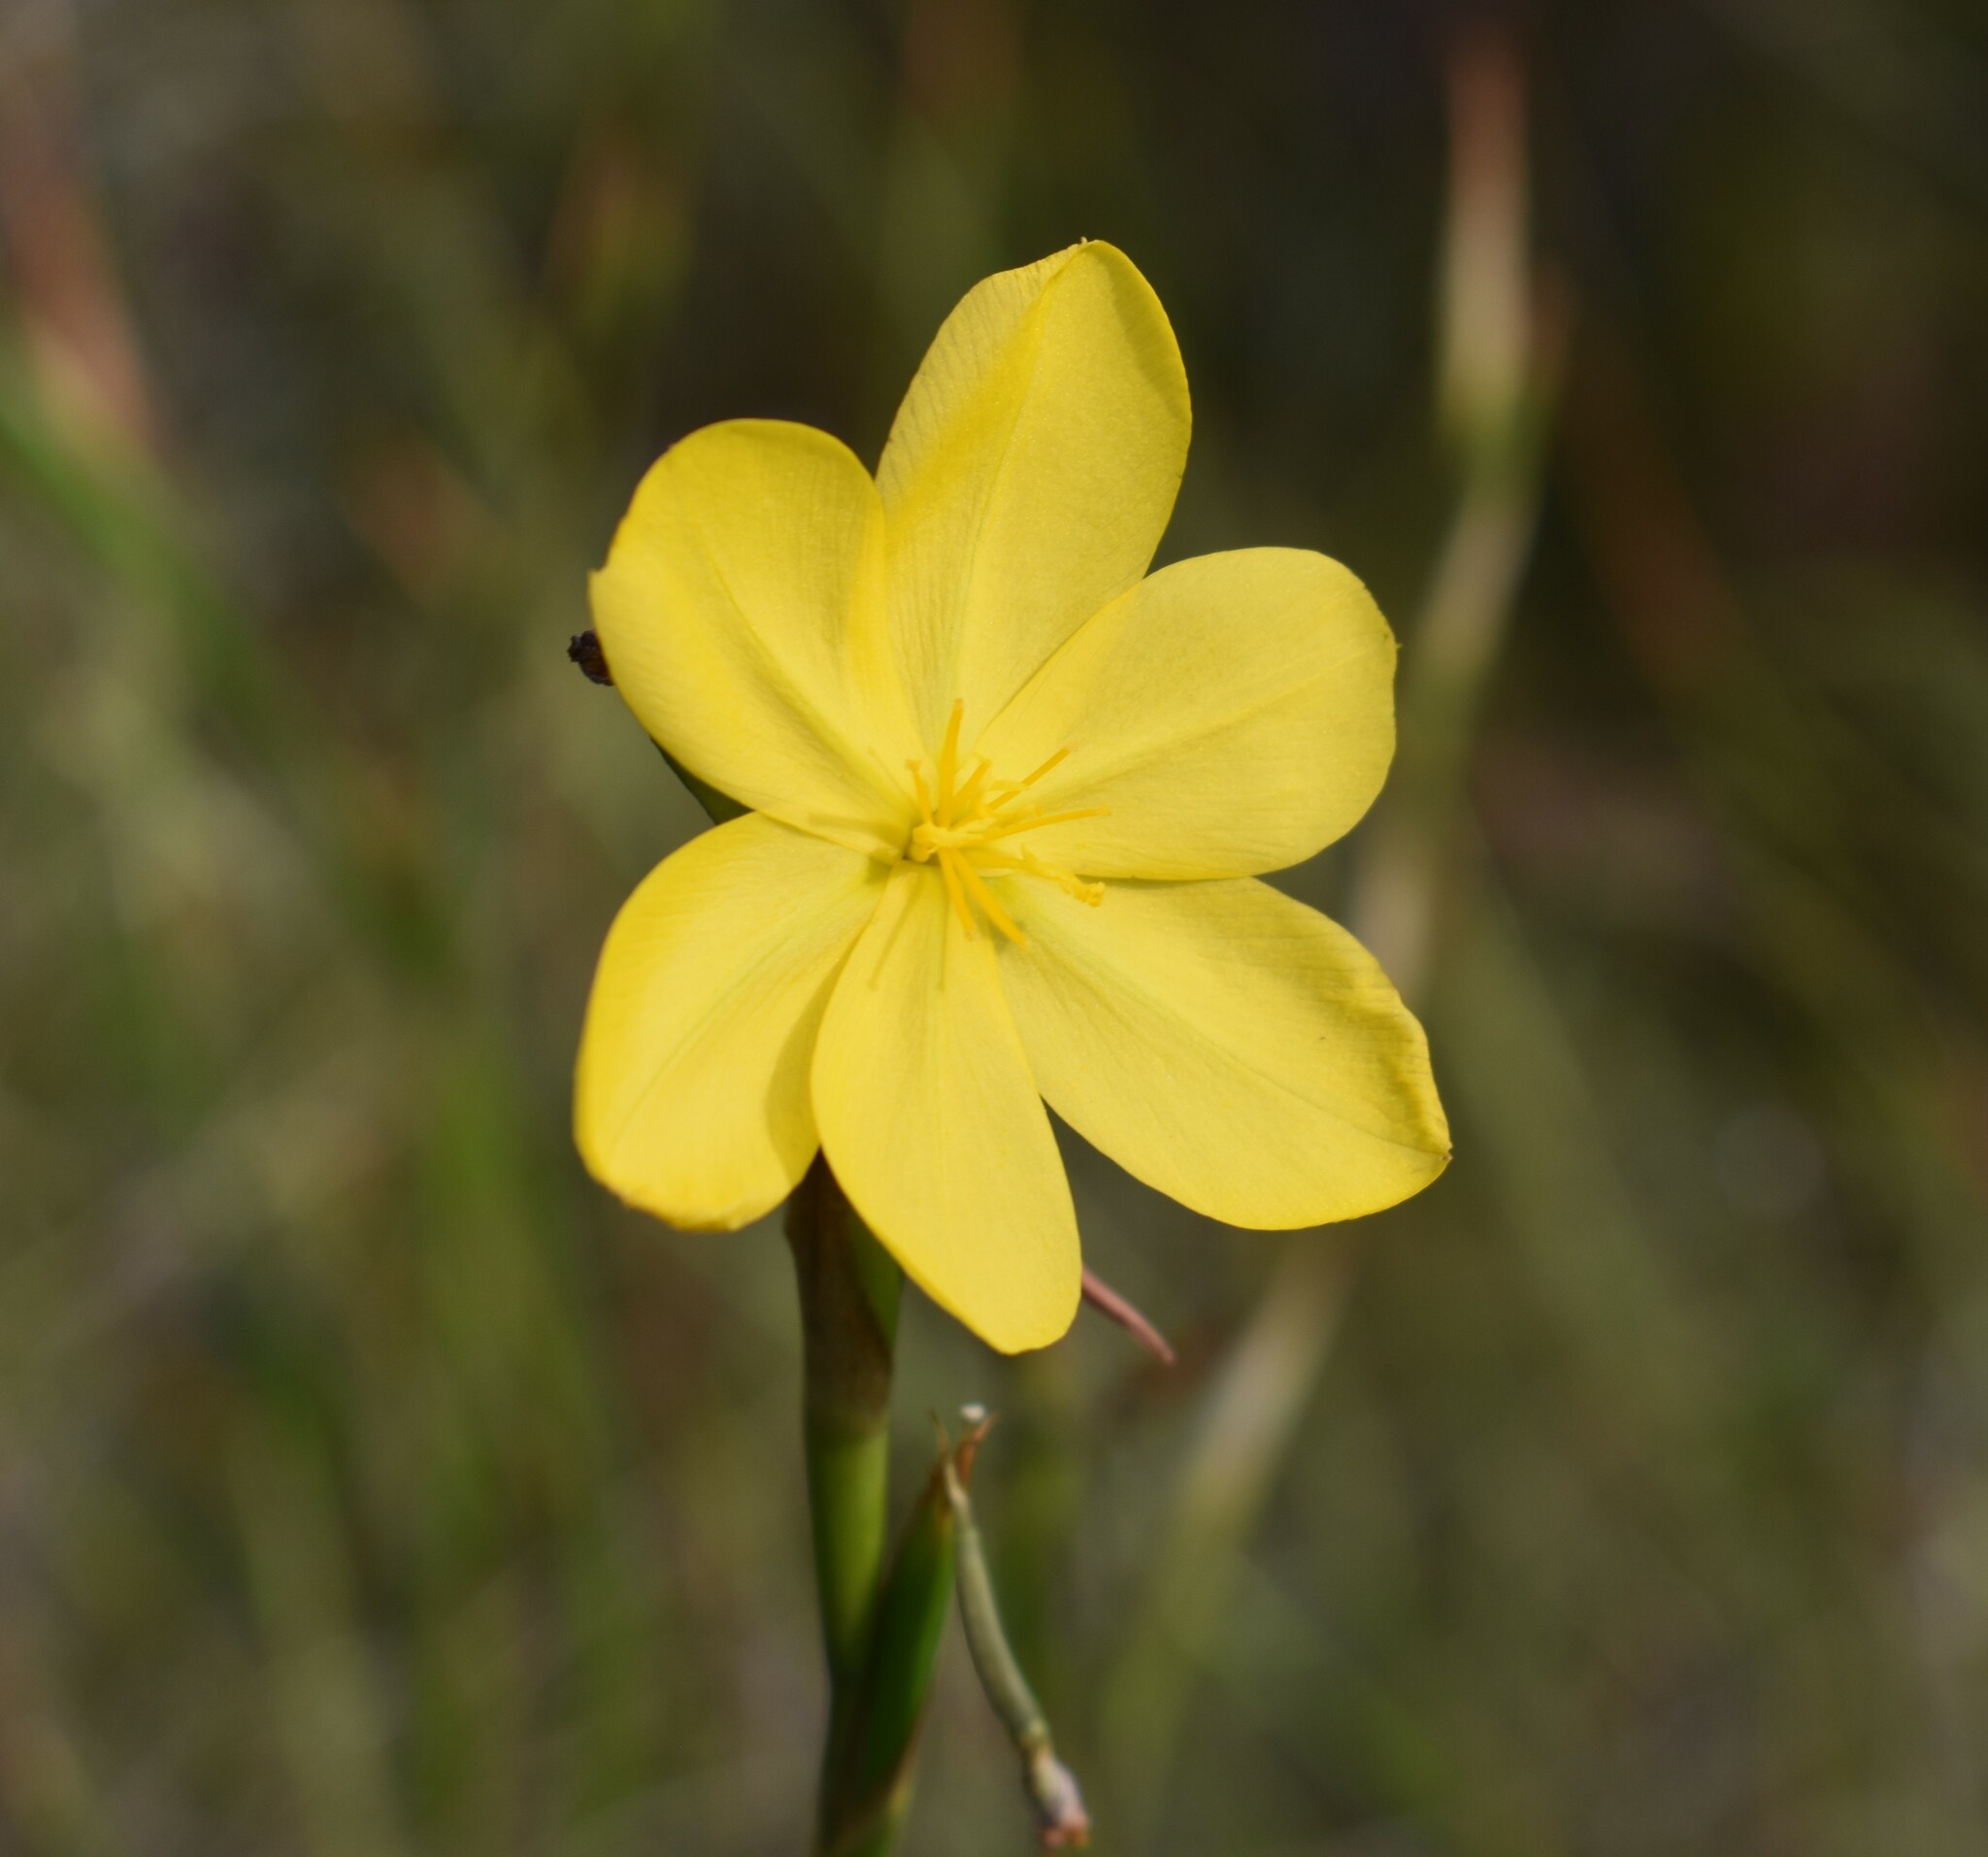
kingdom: Plantae
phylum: Tracheophyta
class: Liliopsida
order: Asparagales
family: Iridaceae
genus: Moraea
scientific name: Moraea lewisiae
